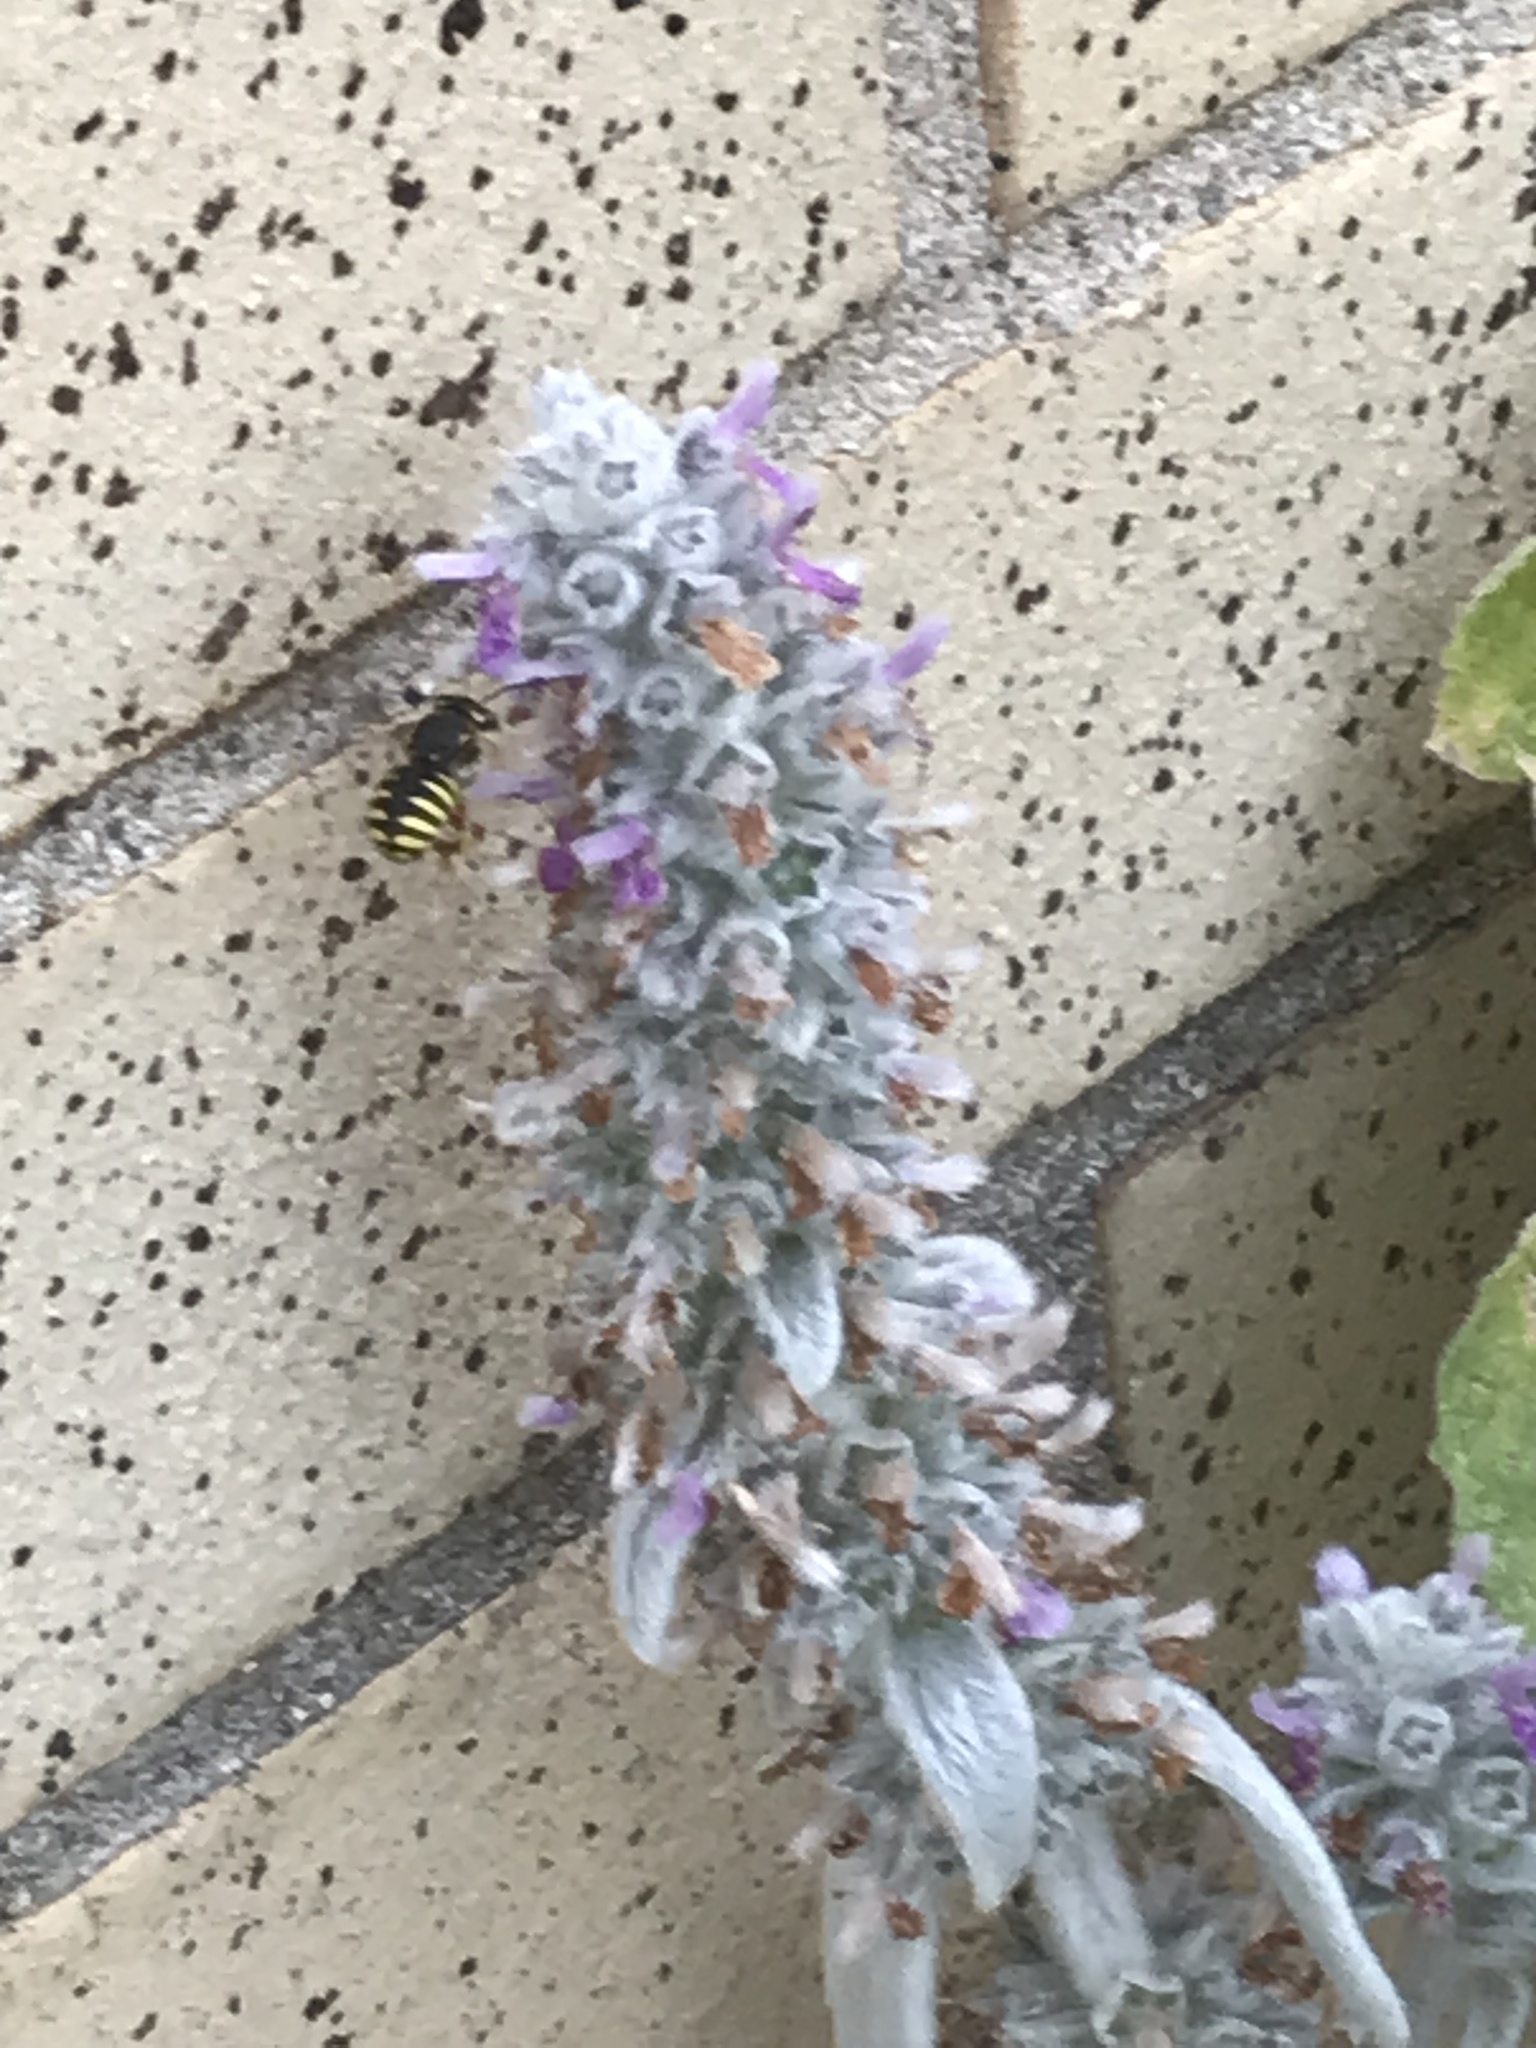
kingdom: Animalia
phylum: Arthropoda
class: Insecta
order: Hymenoptera
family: Megachilidae
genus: Anthidium
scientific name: Anthidium manicatum
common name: Wool carder bee
